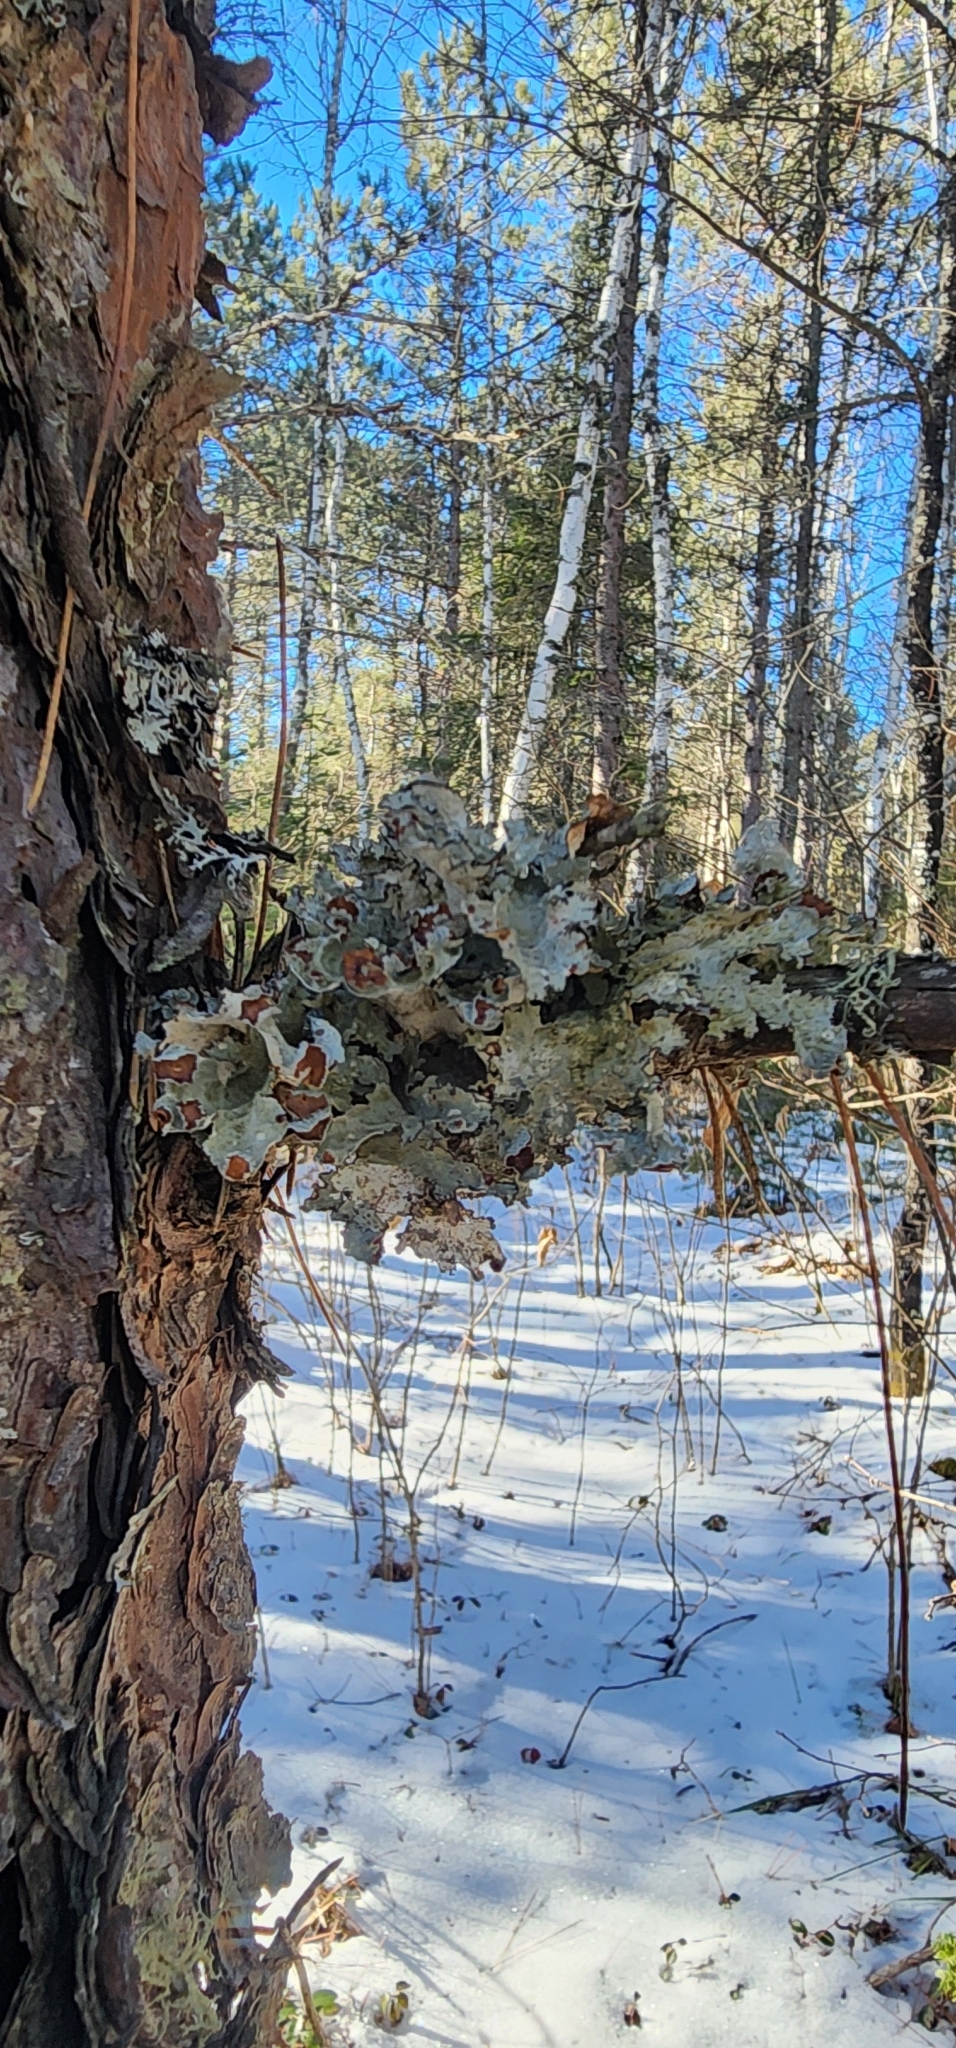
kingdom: Fungi
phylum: Ascomycota
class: Lecanoromycetes
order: Lecanorales
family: Parmeliaceae
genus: Platismatia
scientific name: Platismatia tuckermanii
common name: Crumpled rag lichen
